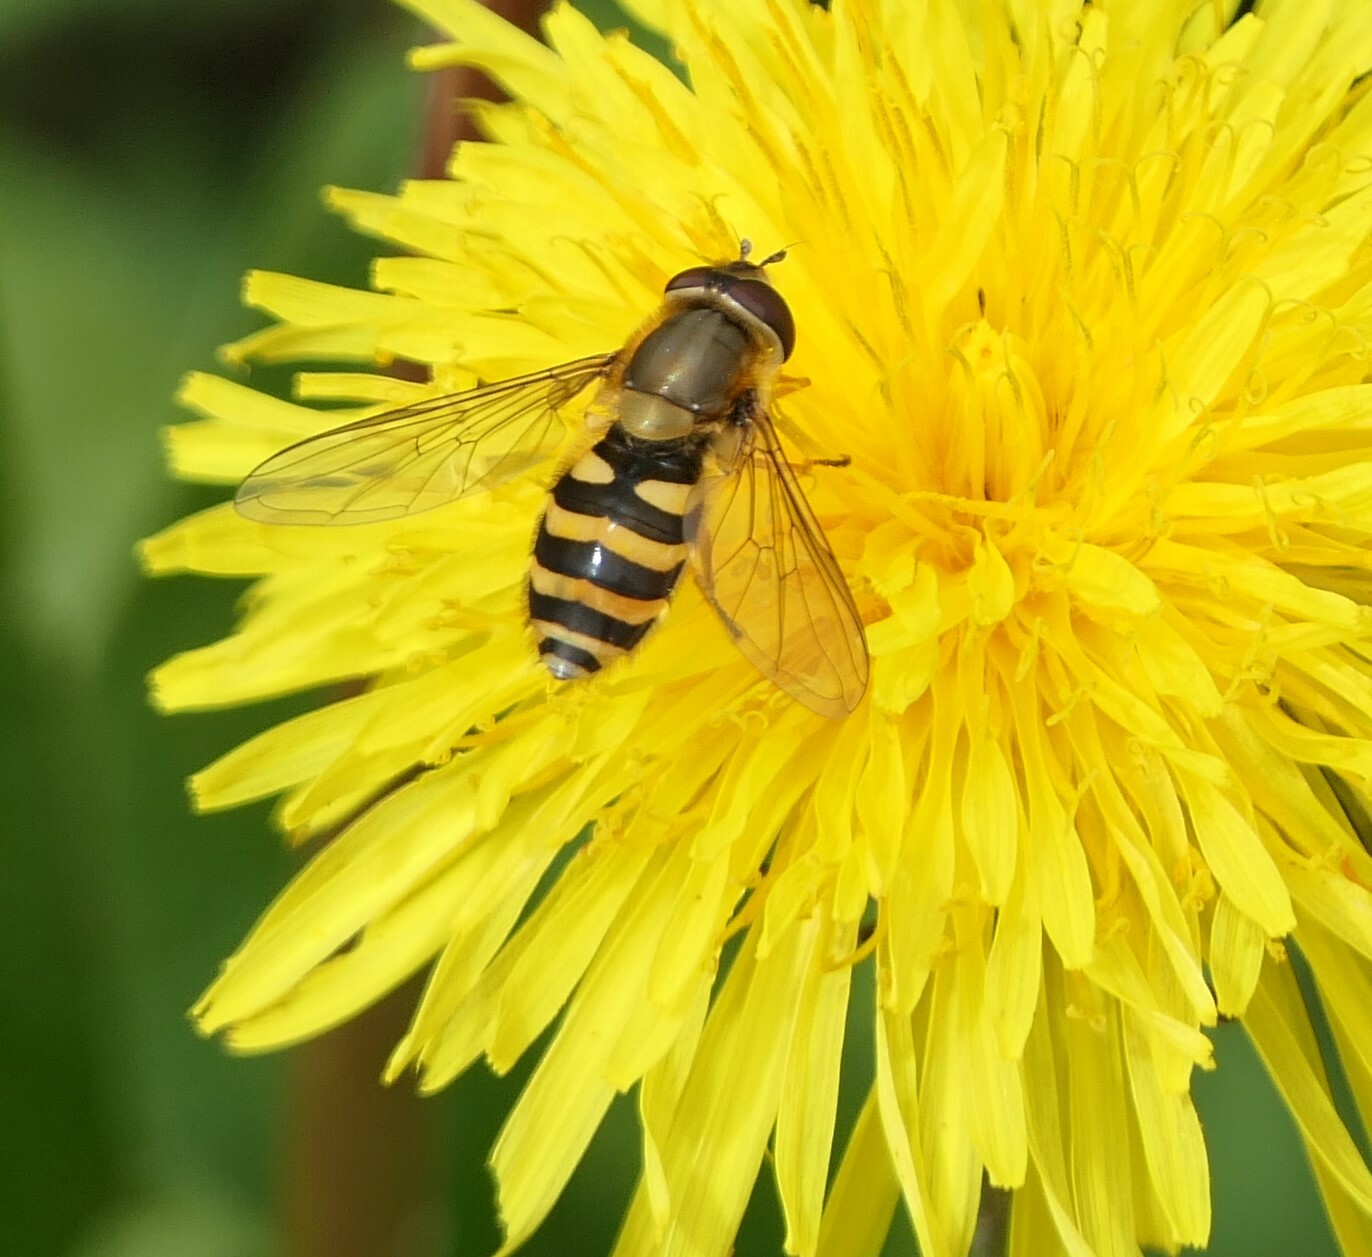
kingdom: Animalia
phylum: Arthropoda
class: Insecta
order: Diptera
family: Syrphidae
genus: Syrphus
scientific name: Syrphus
